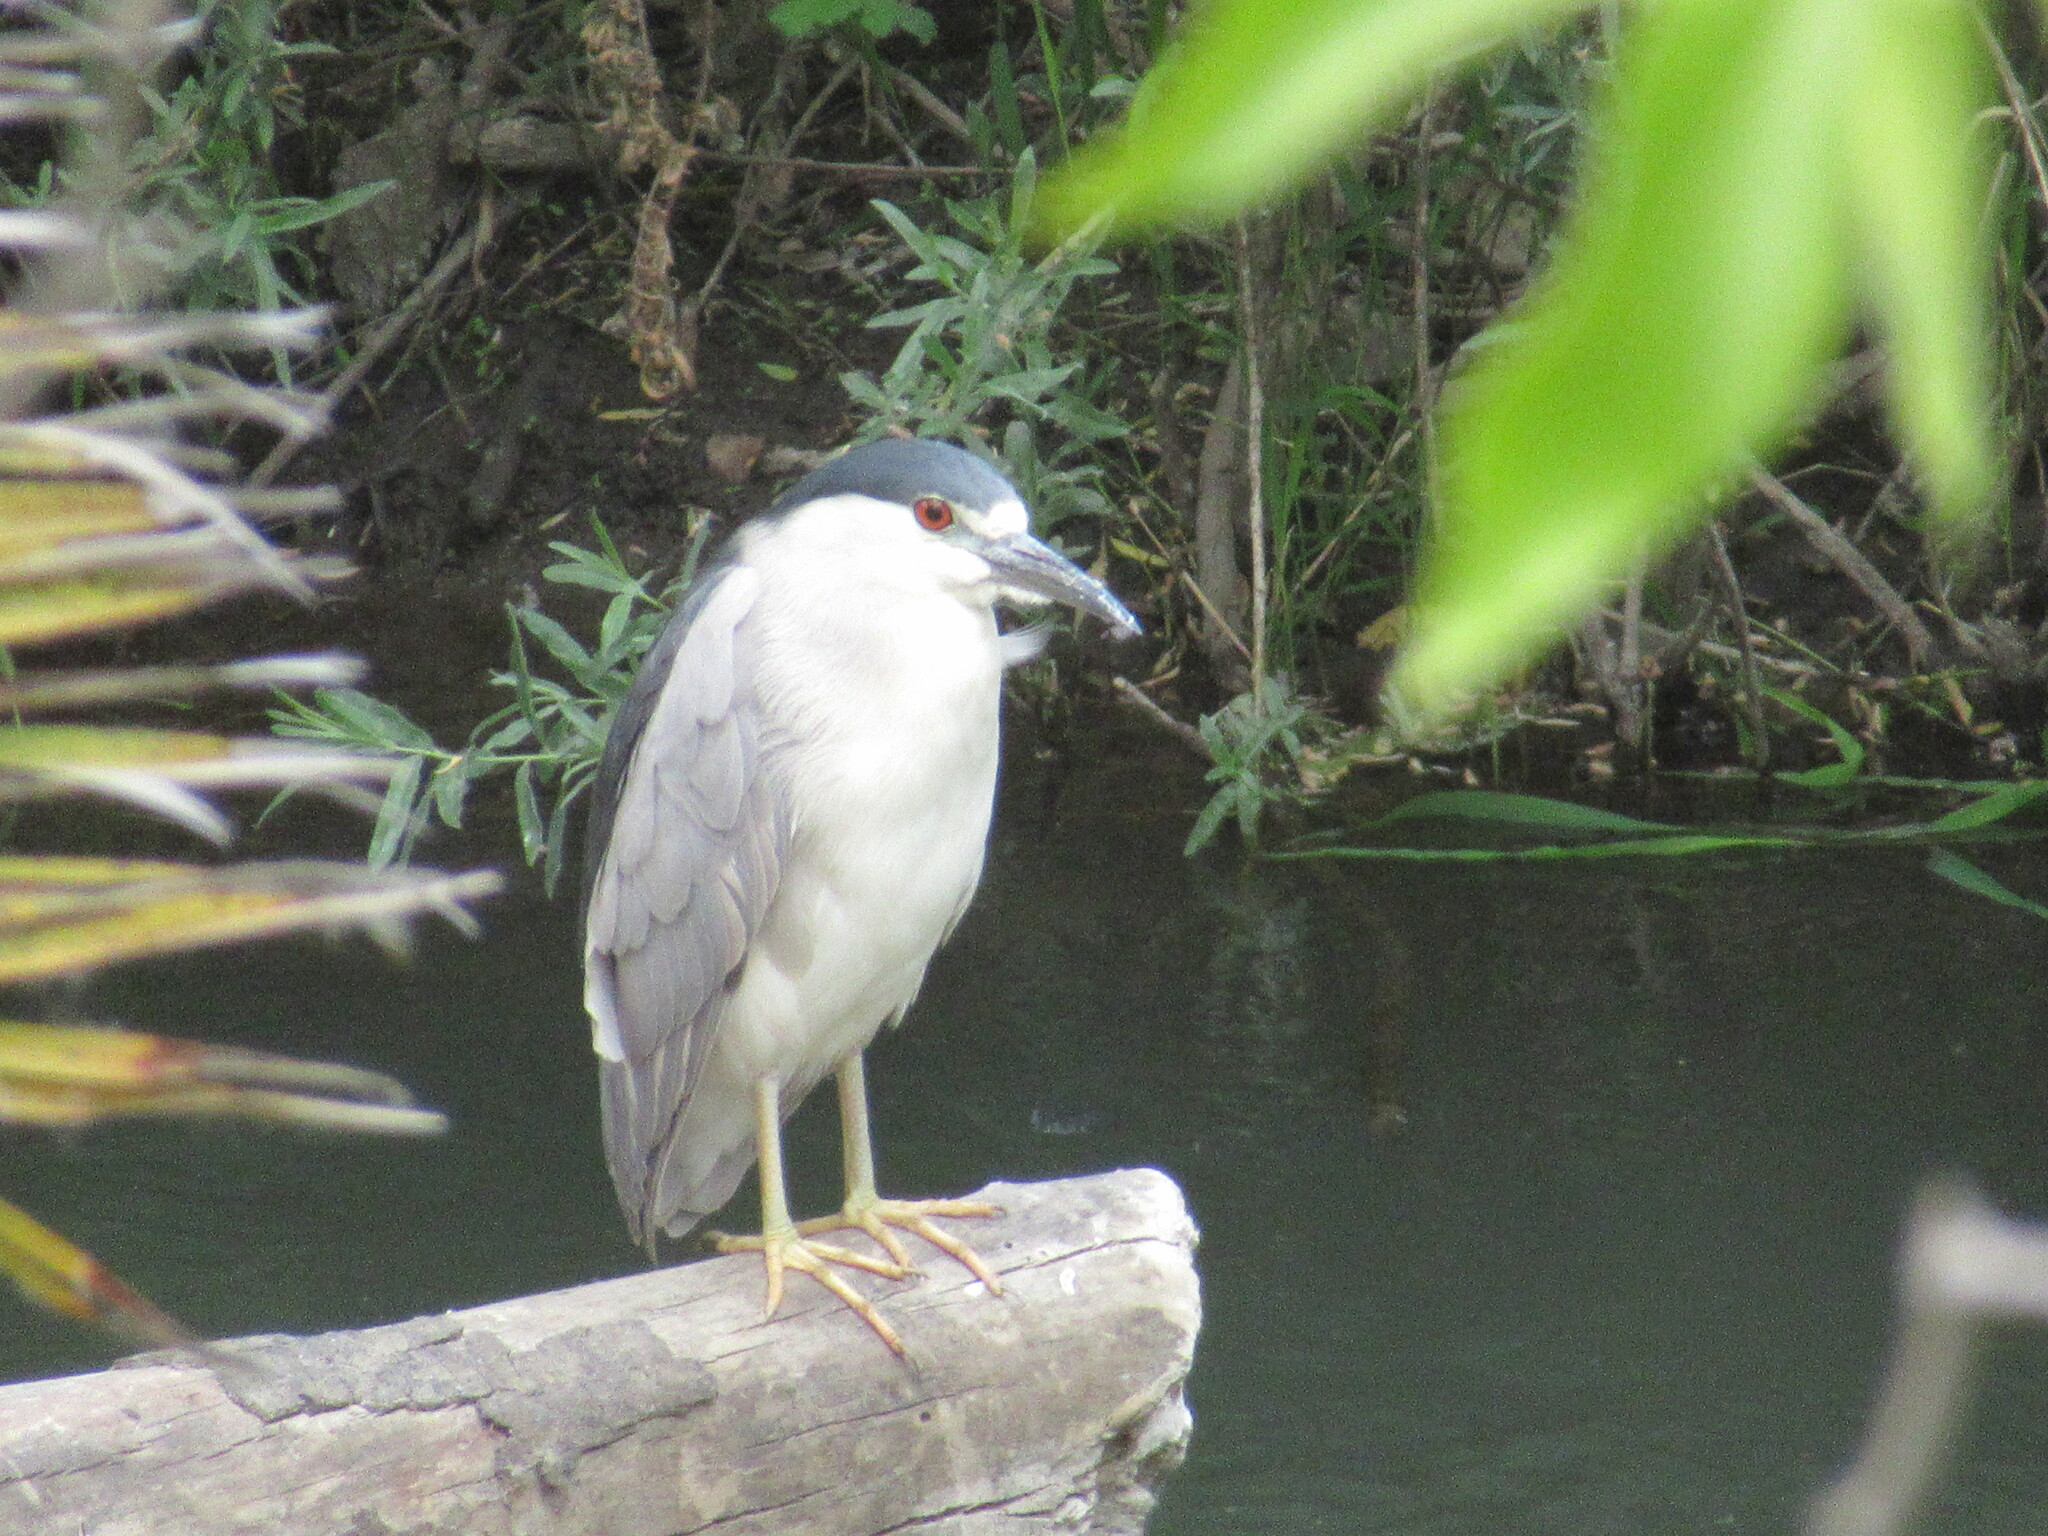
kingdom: Animalia
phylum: Chordata
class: Aves
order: Pelecaniformes
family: Ardeidae
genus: Nycticorax
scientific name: Nycticorax nycticorax
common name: Black-crowned night heron
